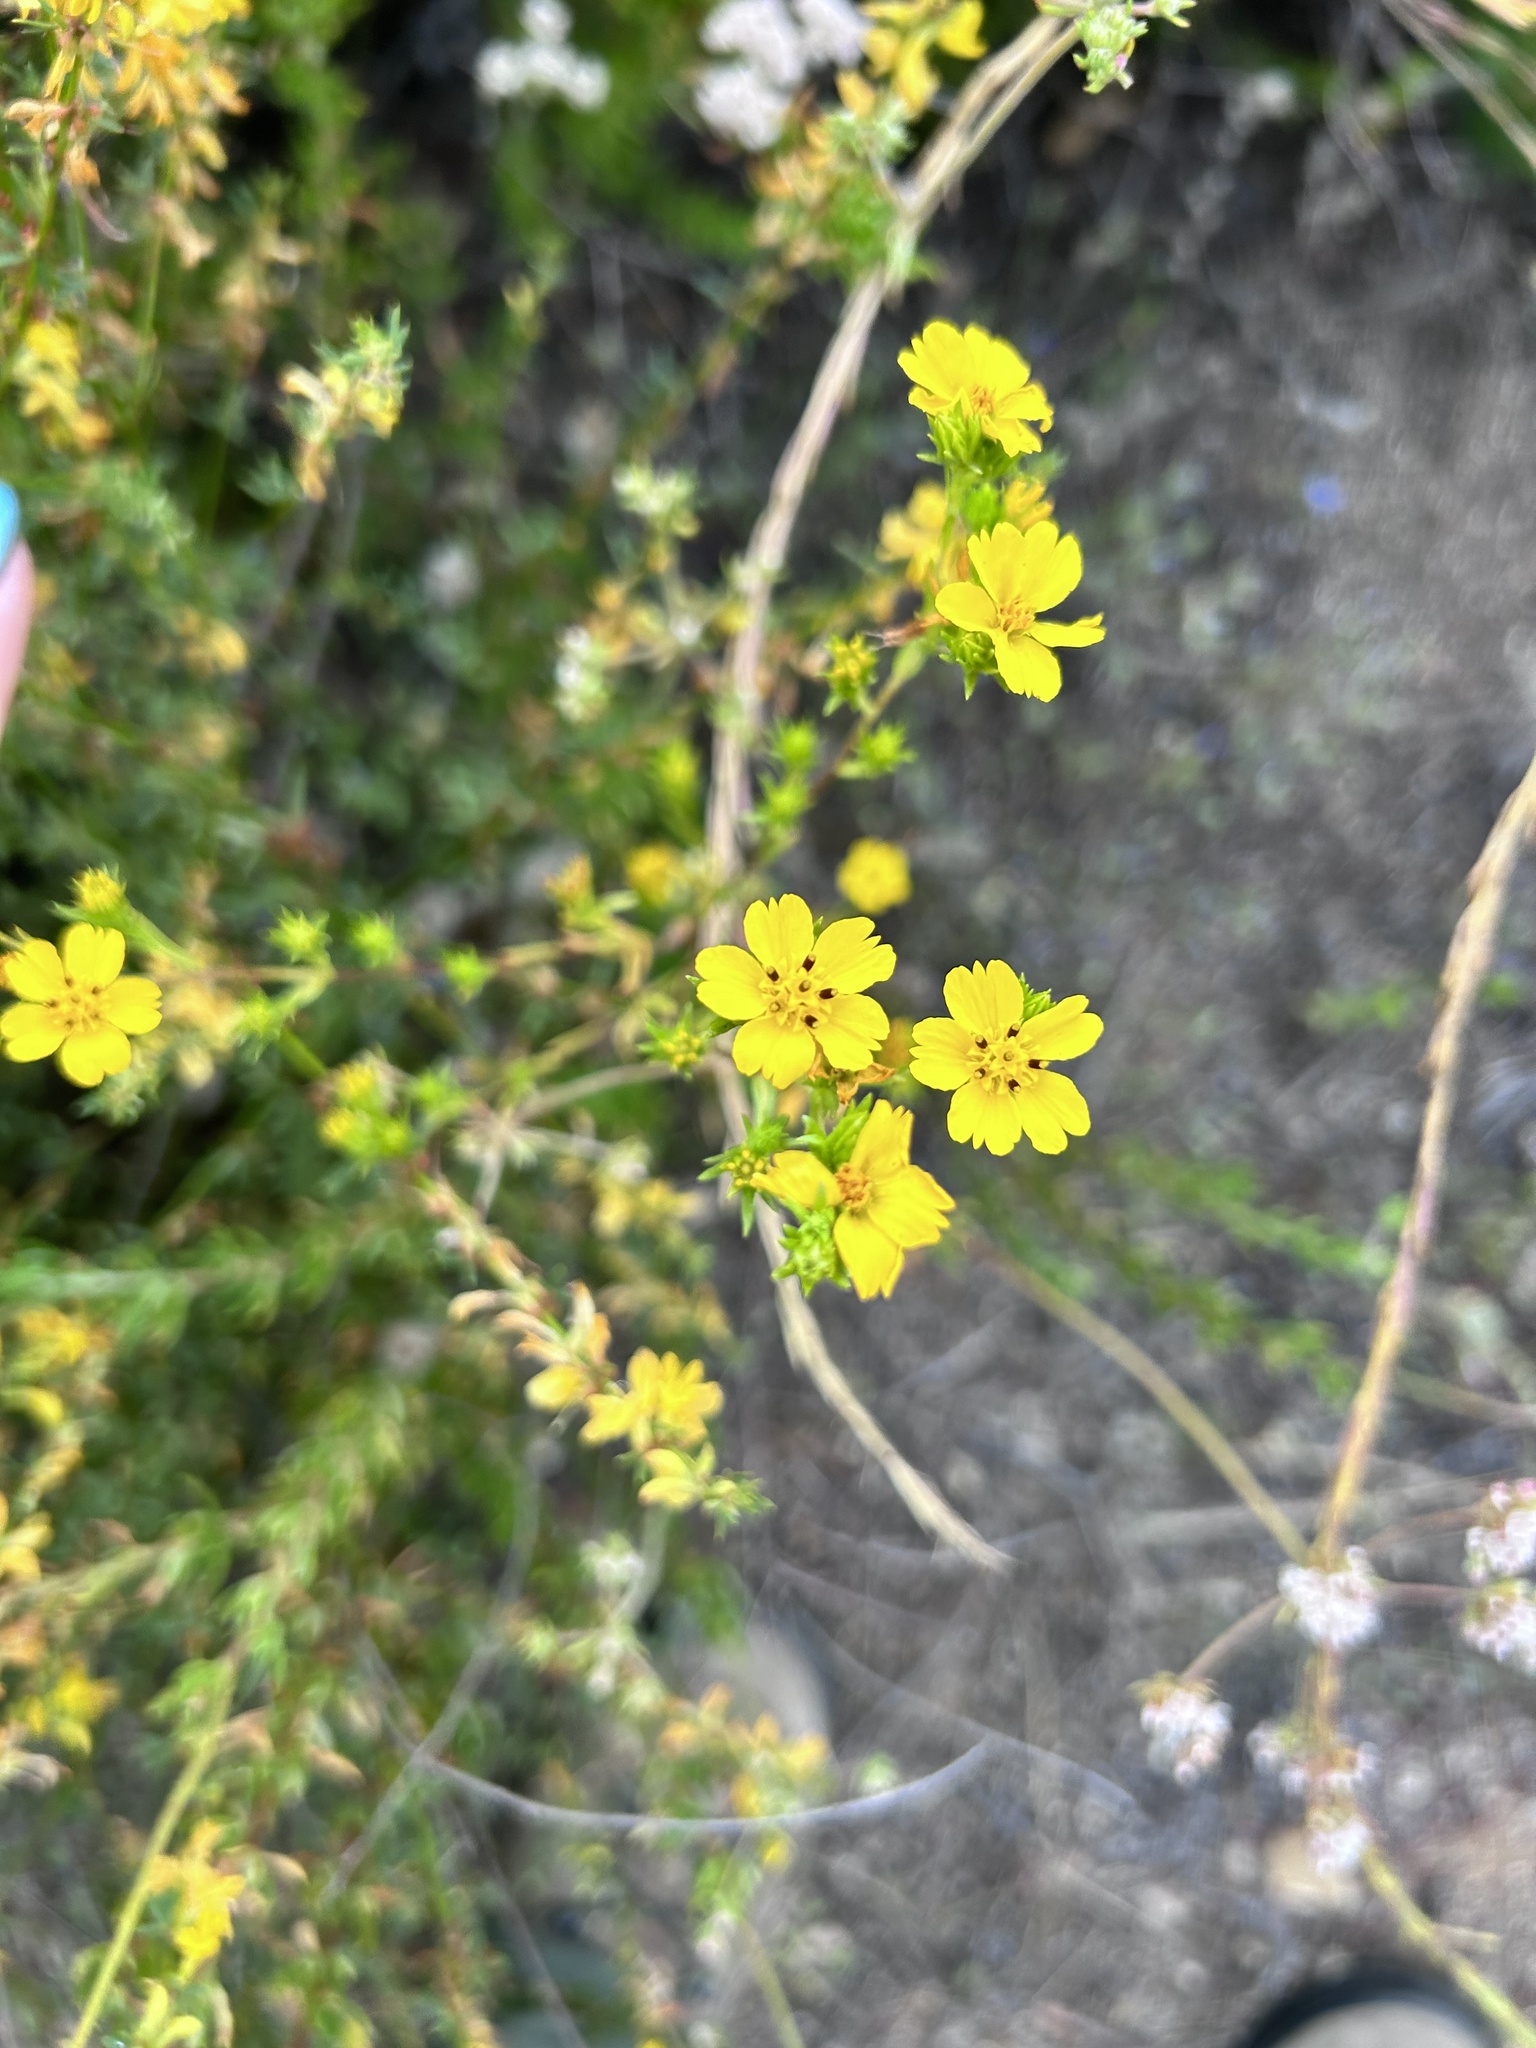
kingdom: Plantae
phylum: Tracheophyta
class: Magnoliopsida
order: Asterales
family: Asteraceae
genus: Deinandra
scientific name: Deinandra fasciculata
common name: Clustered tarweed
